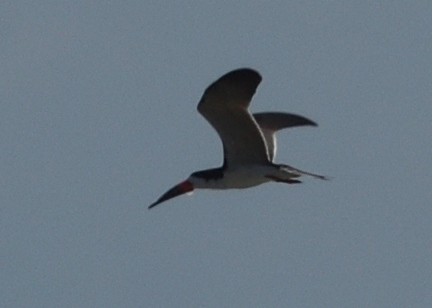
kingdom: Animalia
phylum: Chordata
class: Aves
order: Charadriiformes
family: Laridae
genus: Rynchops
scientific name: Rynchops niger
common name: Black skimmer
